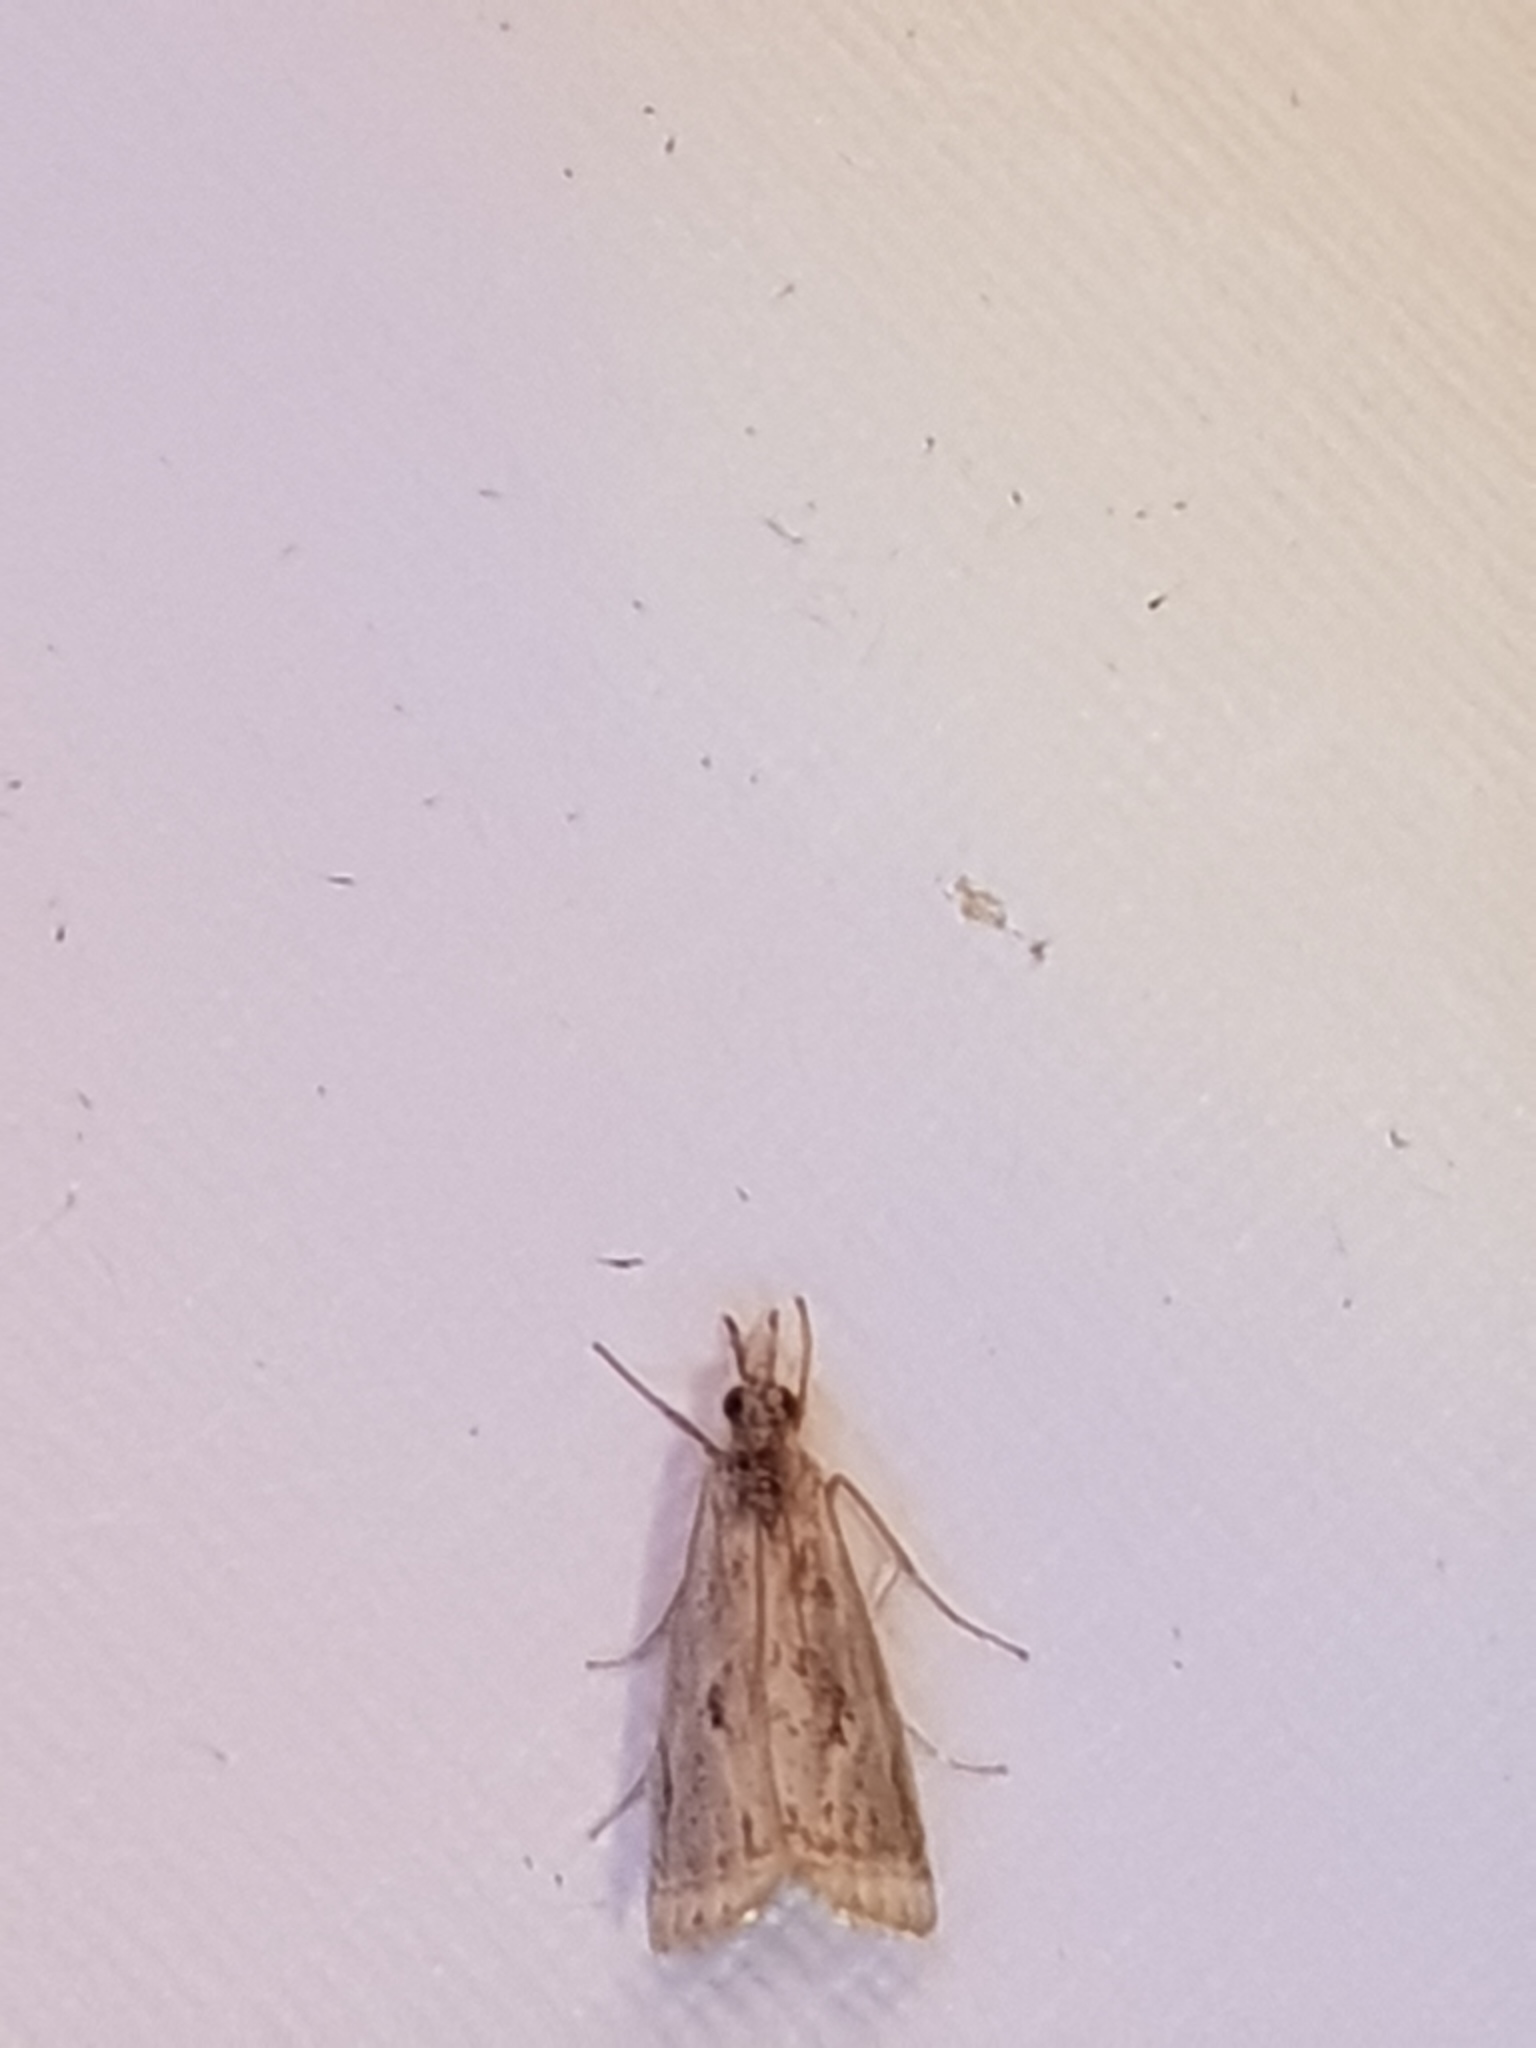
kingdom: Animalia
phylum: Arthropoda
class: Insecta
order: Lepidoptera
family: Crambidae
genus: Microcrambus
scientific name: Microcrambus elegans
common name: Elegant grass-veneer
